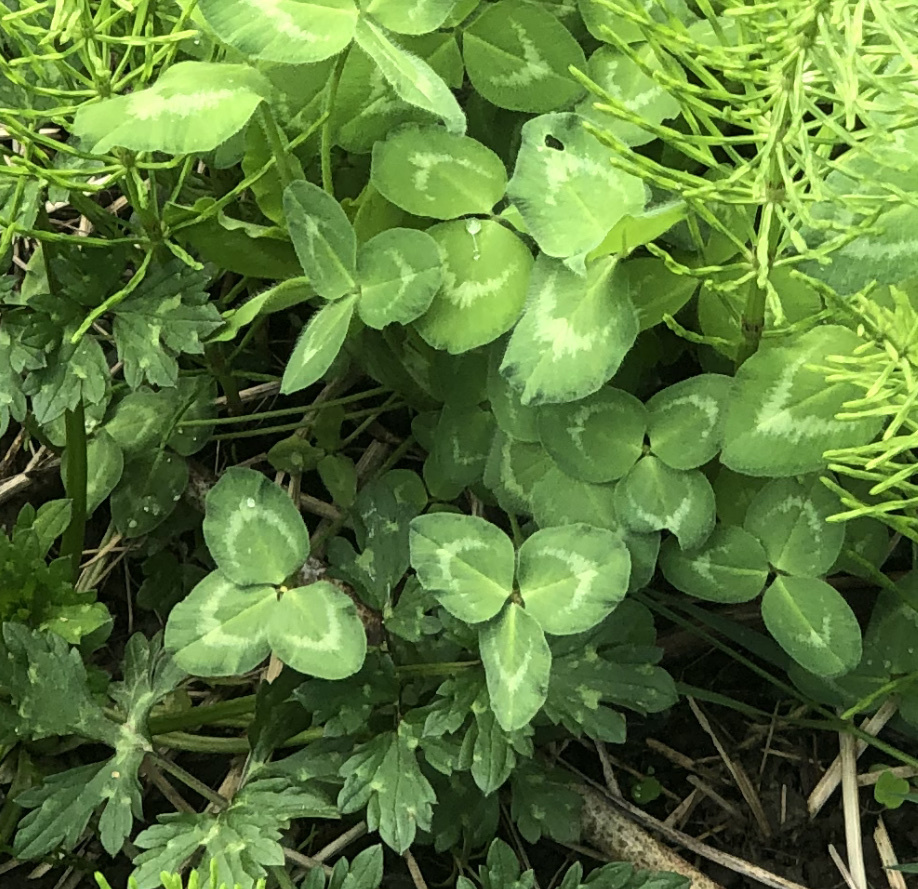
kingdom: Plantae
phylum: Tracheophyta
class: Magnoliopsida
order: Fabales
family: Fabaceae
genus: Trifolium
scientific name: Trifolium pratense
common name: Red clover
